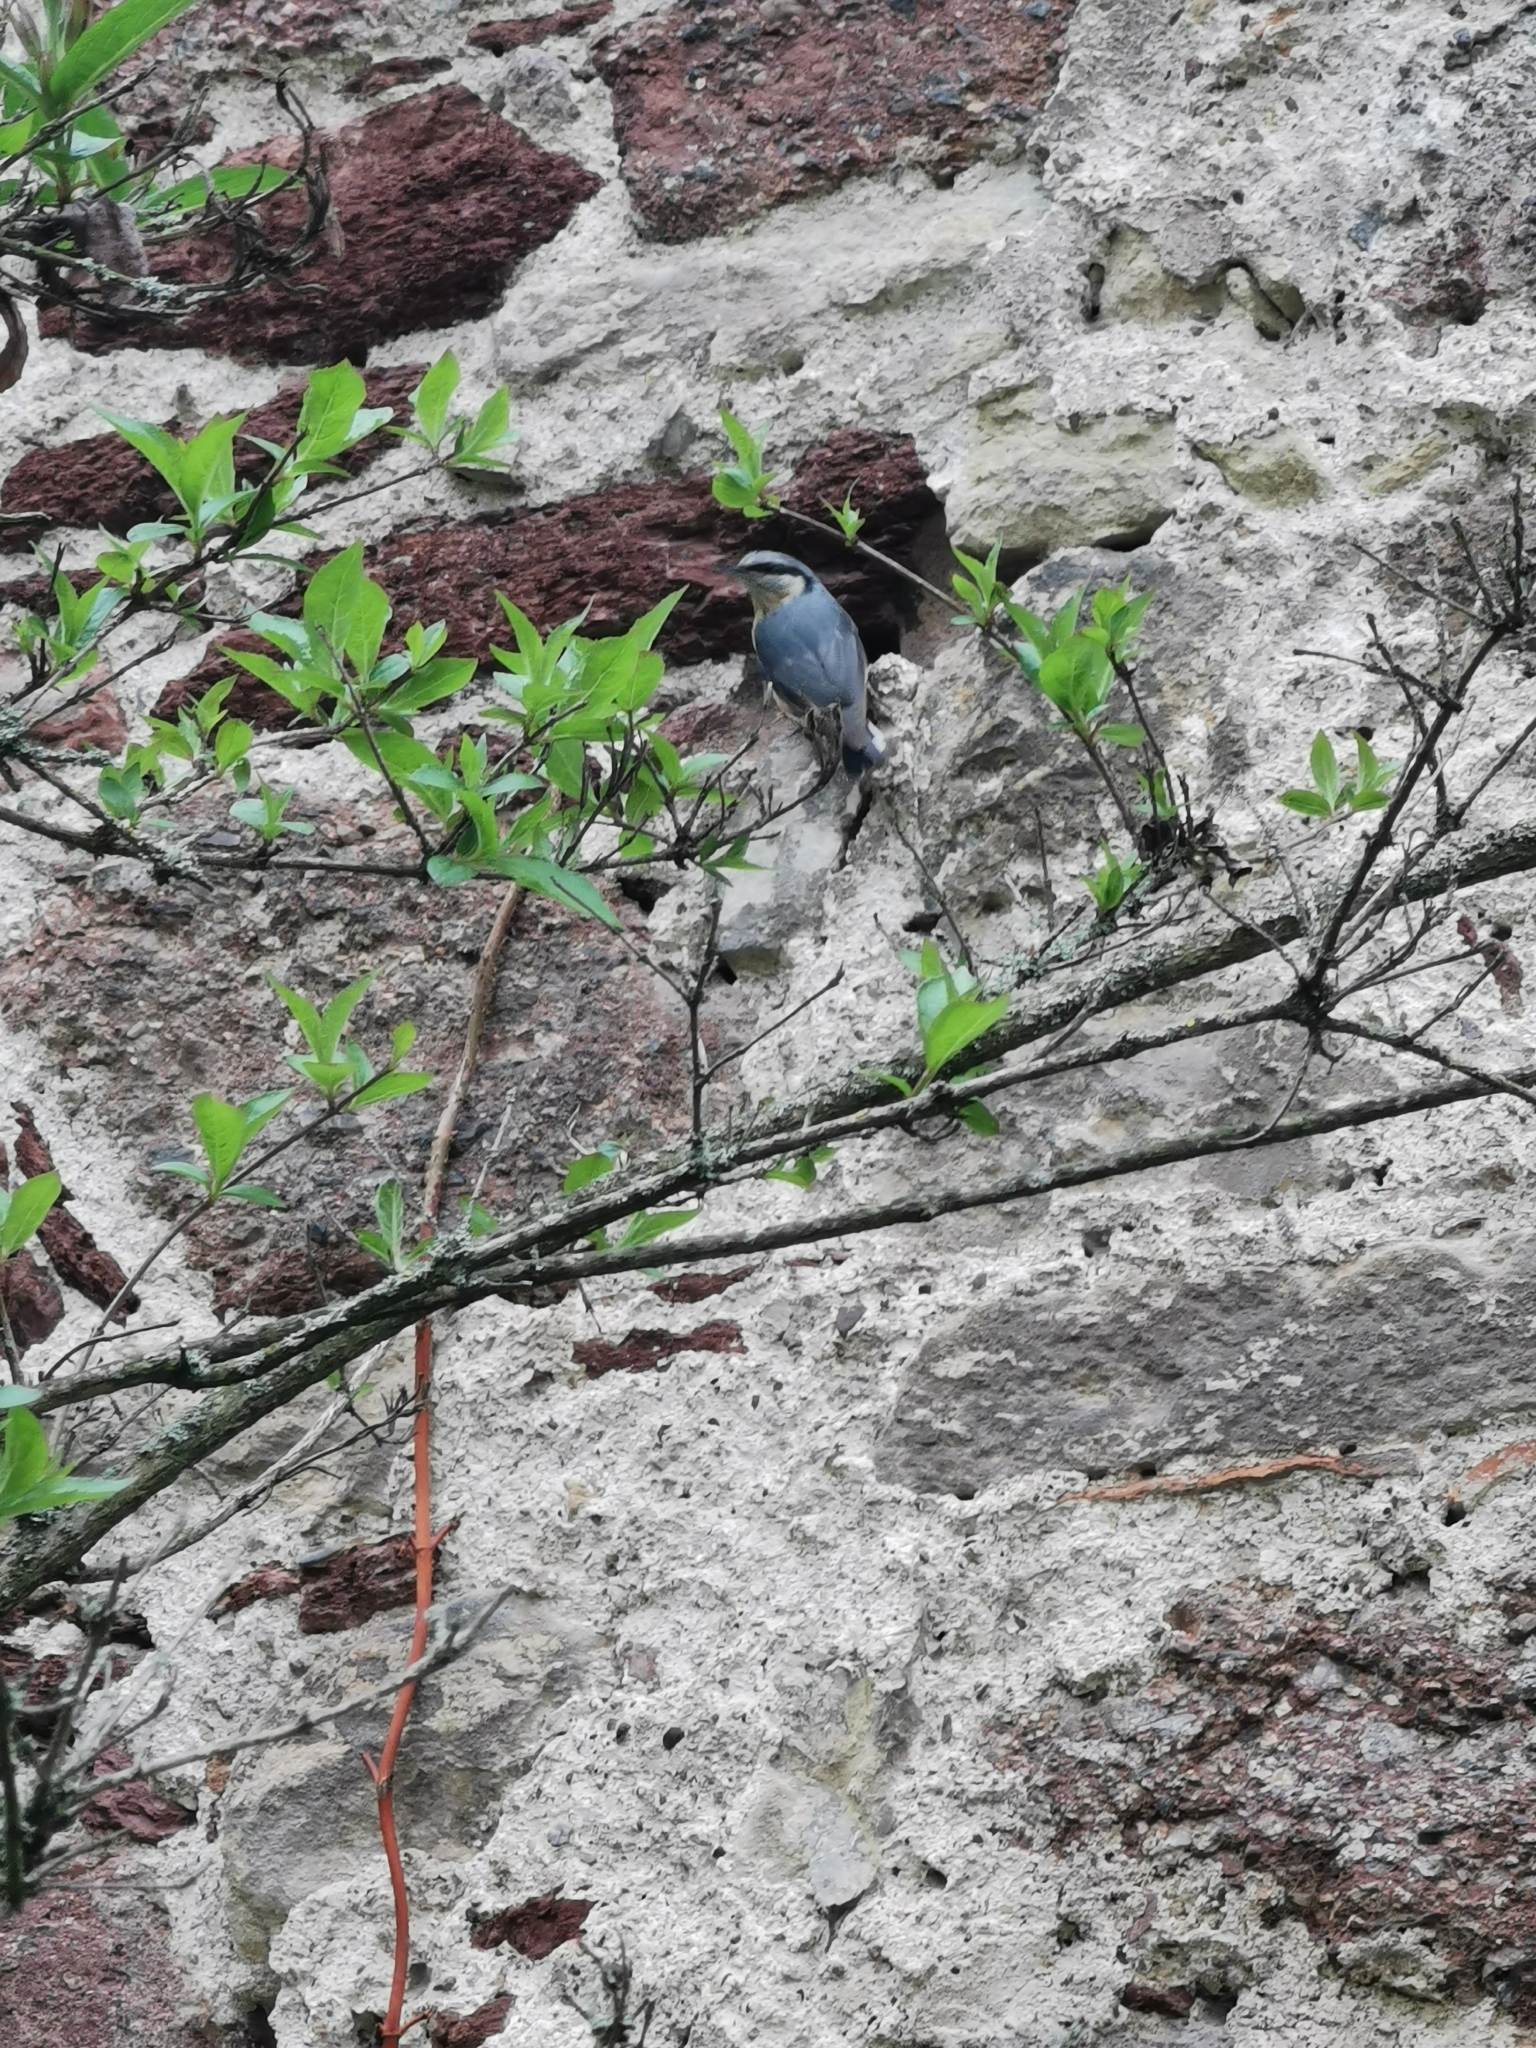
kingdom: Animalia
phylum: Chordata
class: Aves
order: Passeriformes
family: Sittidae
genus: Sitta
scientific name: Sitta europaea
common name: Eurasian nuthatch
